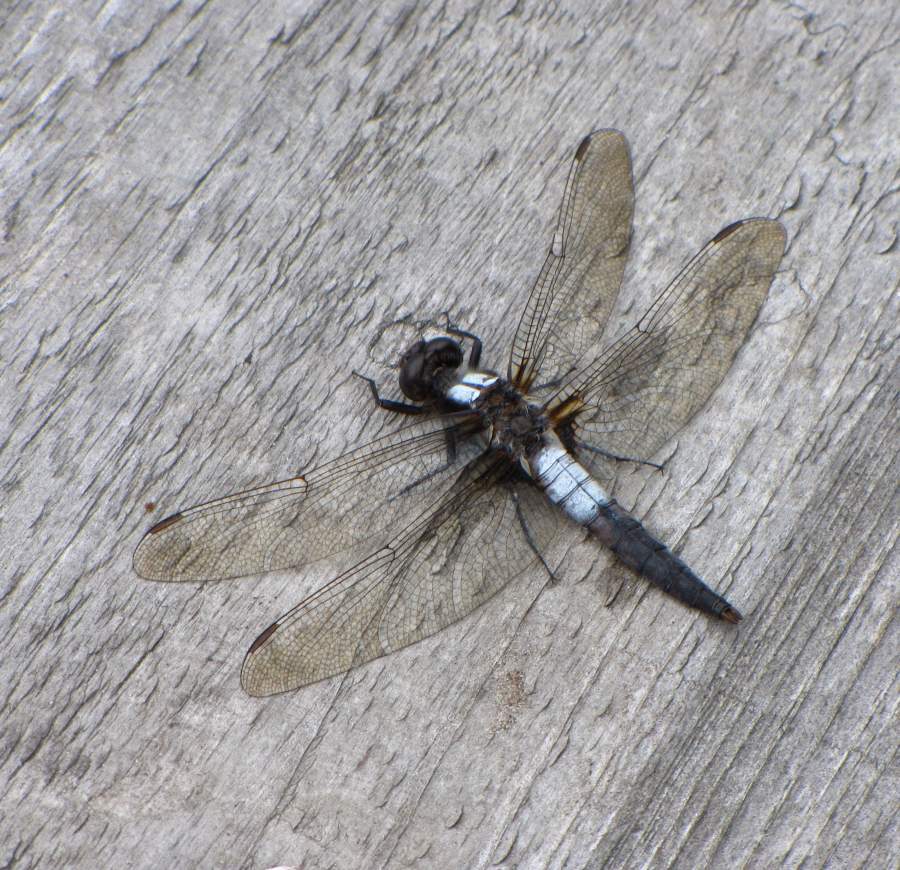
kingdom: Animalia
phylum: Arthropoda
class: Insecta
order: Odonata
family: Libellulidae
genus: Ladona
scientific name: Ladona julia
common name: Chalk-fronted corporal
